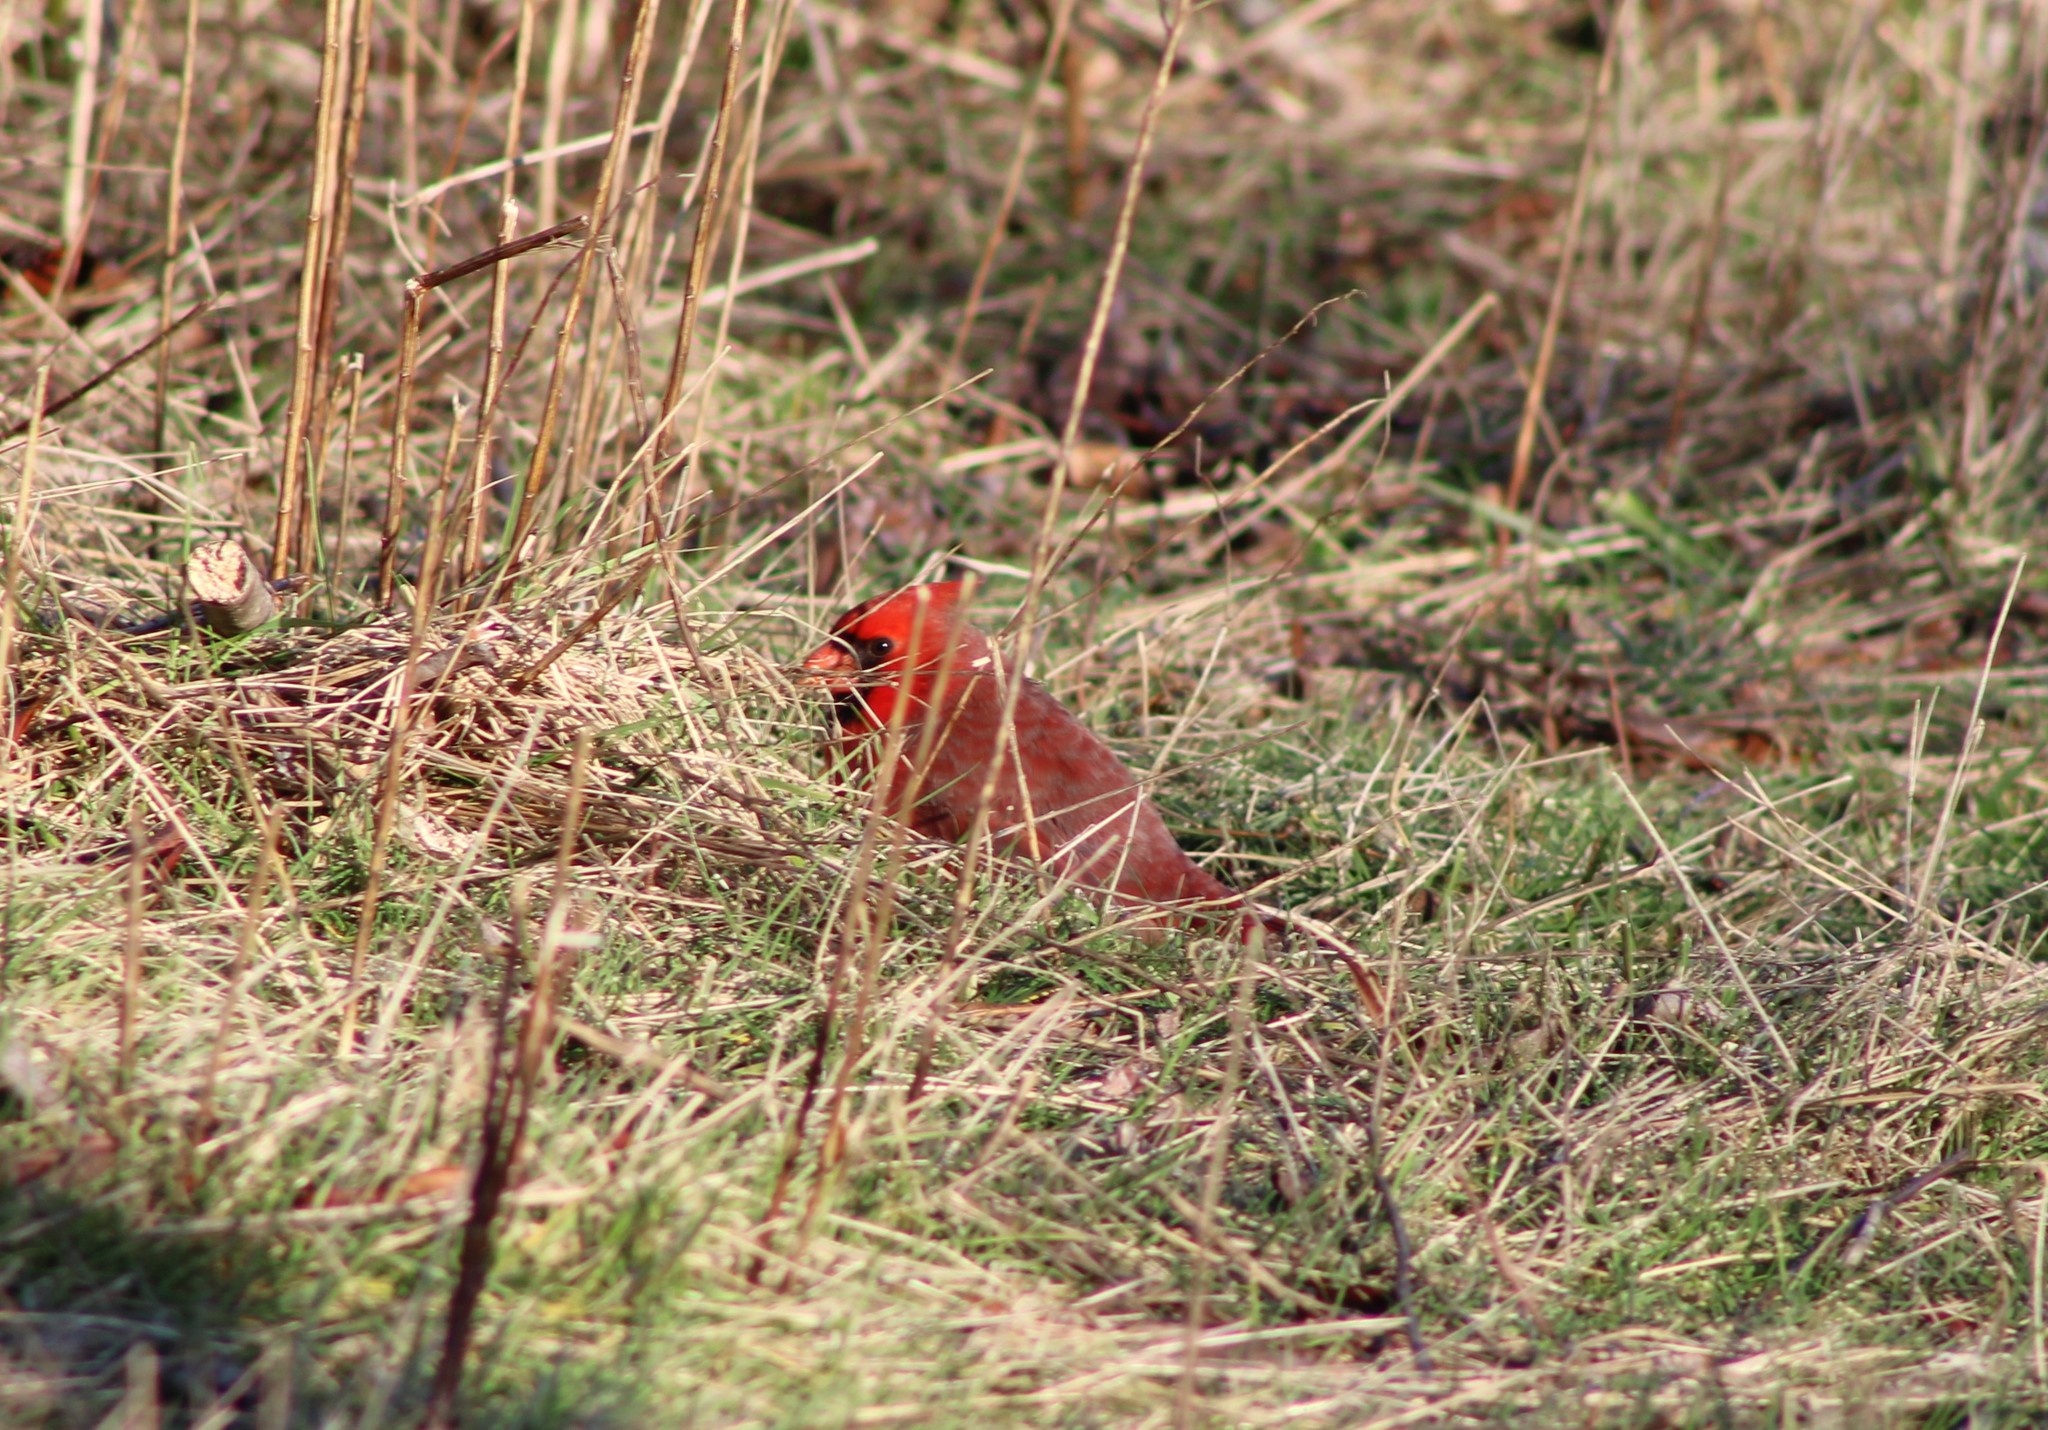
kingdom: Animalia
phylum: Chordata
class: Aves
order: Passeriformes
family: Cardinalidae
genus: Cardinalis
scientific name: Cardinalis cardinalis
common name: Northern cardinal
